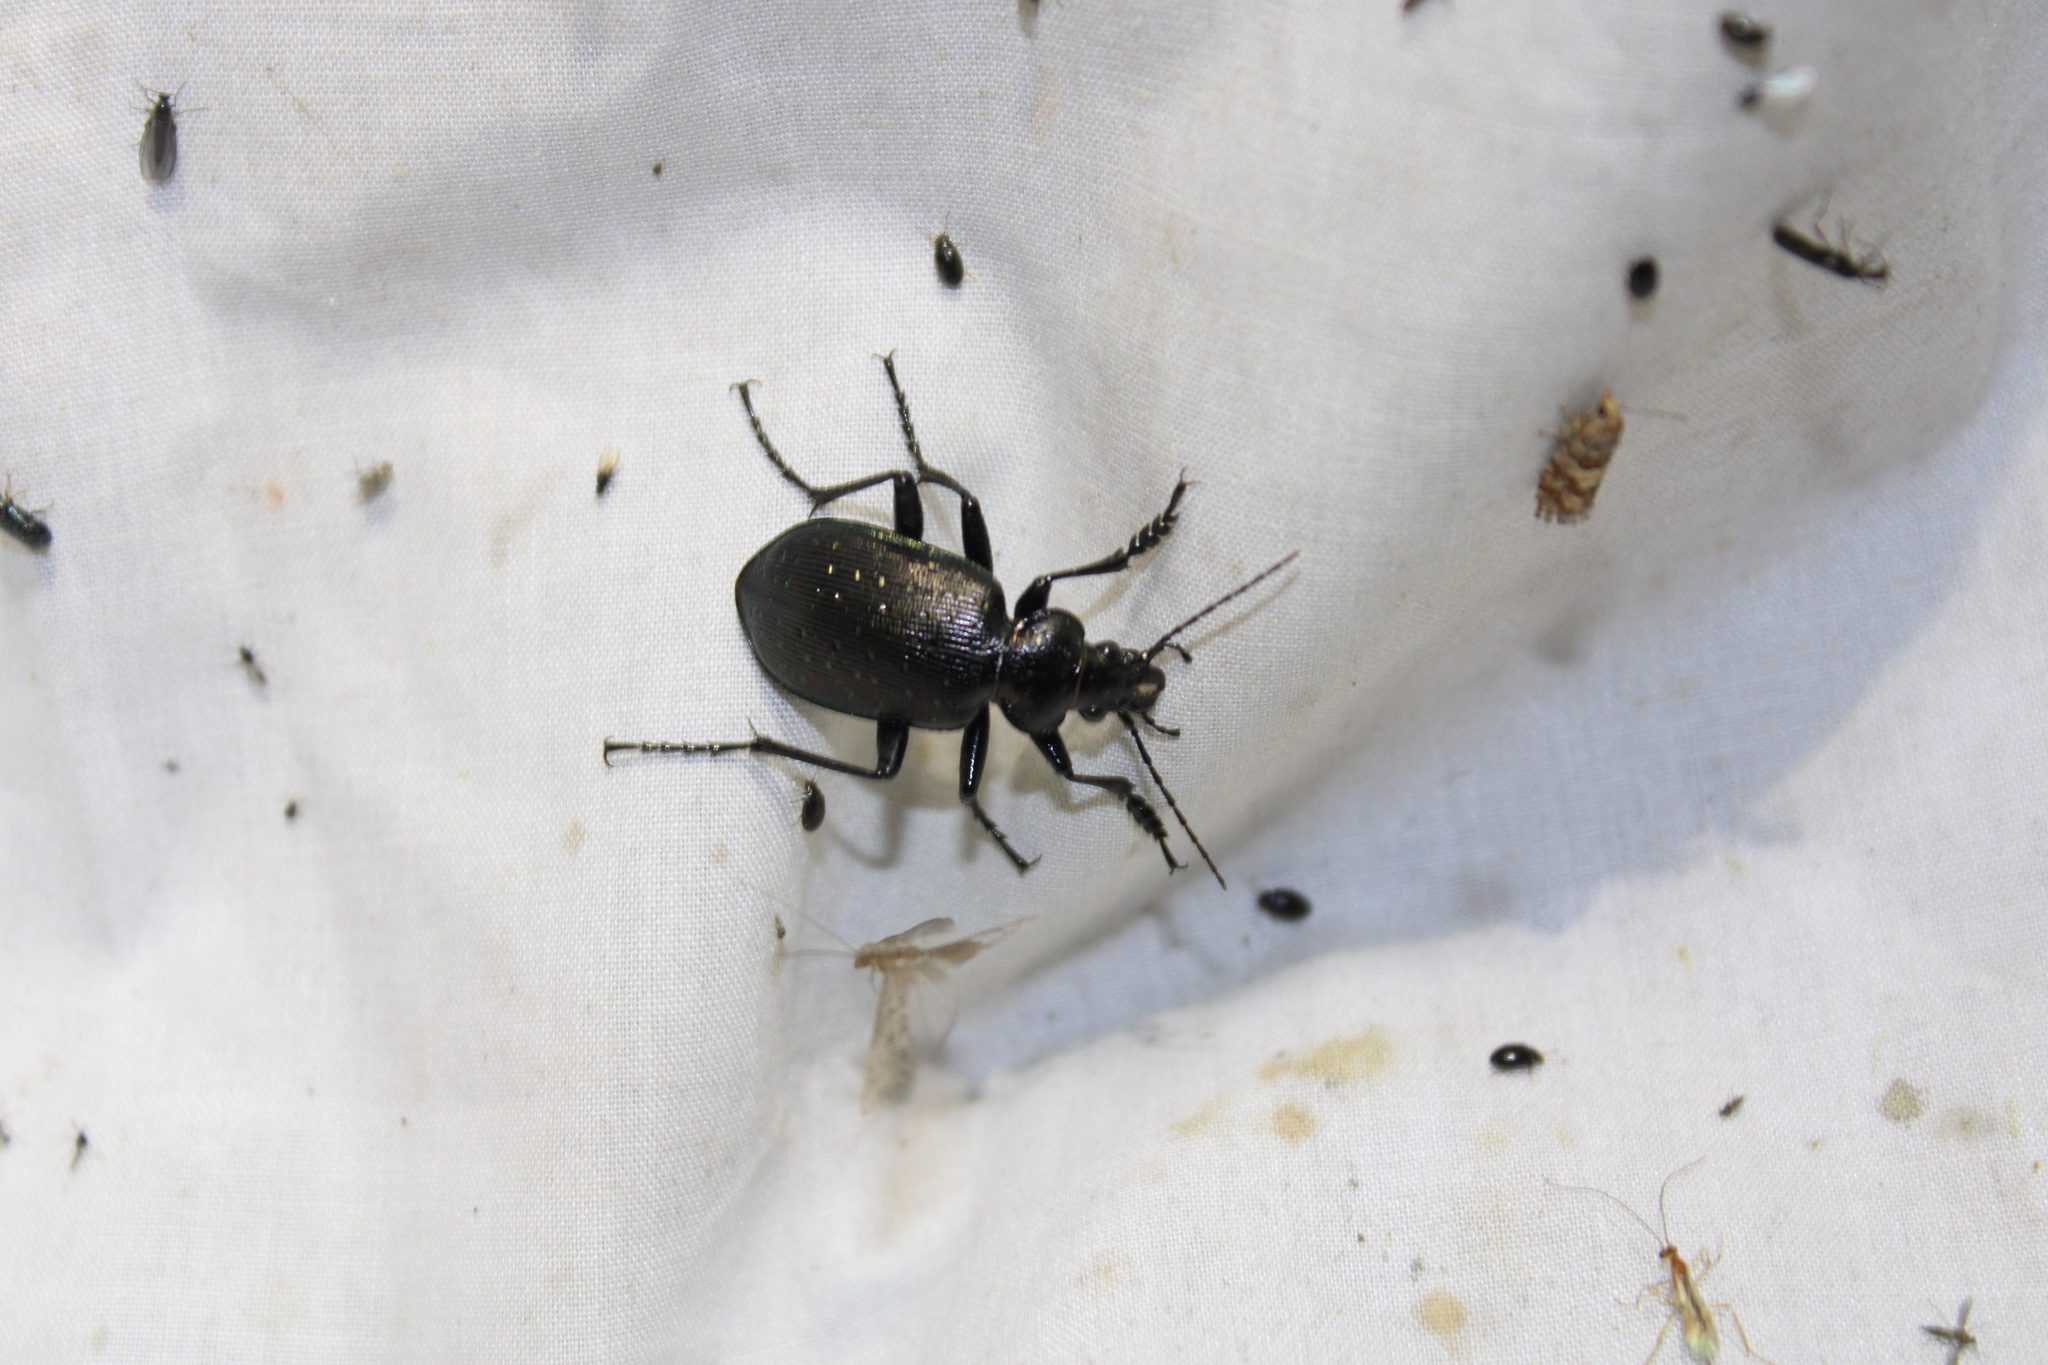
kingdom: Animalia
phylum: Arthropoda
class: Insecta
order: Coleoptera
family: Carabidae
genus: Calosoma
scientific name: Calosoma frigidum
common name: Cold-country caterpillar hunter
